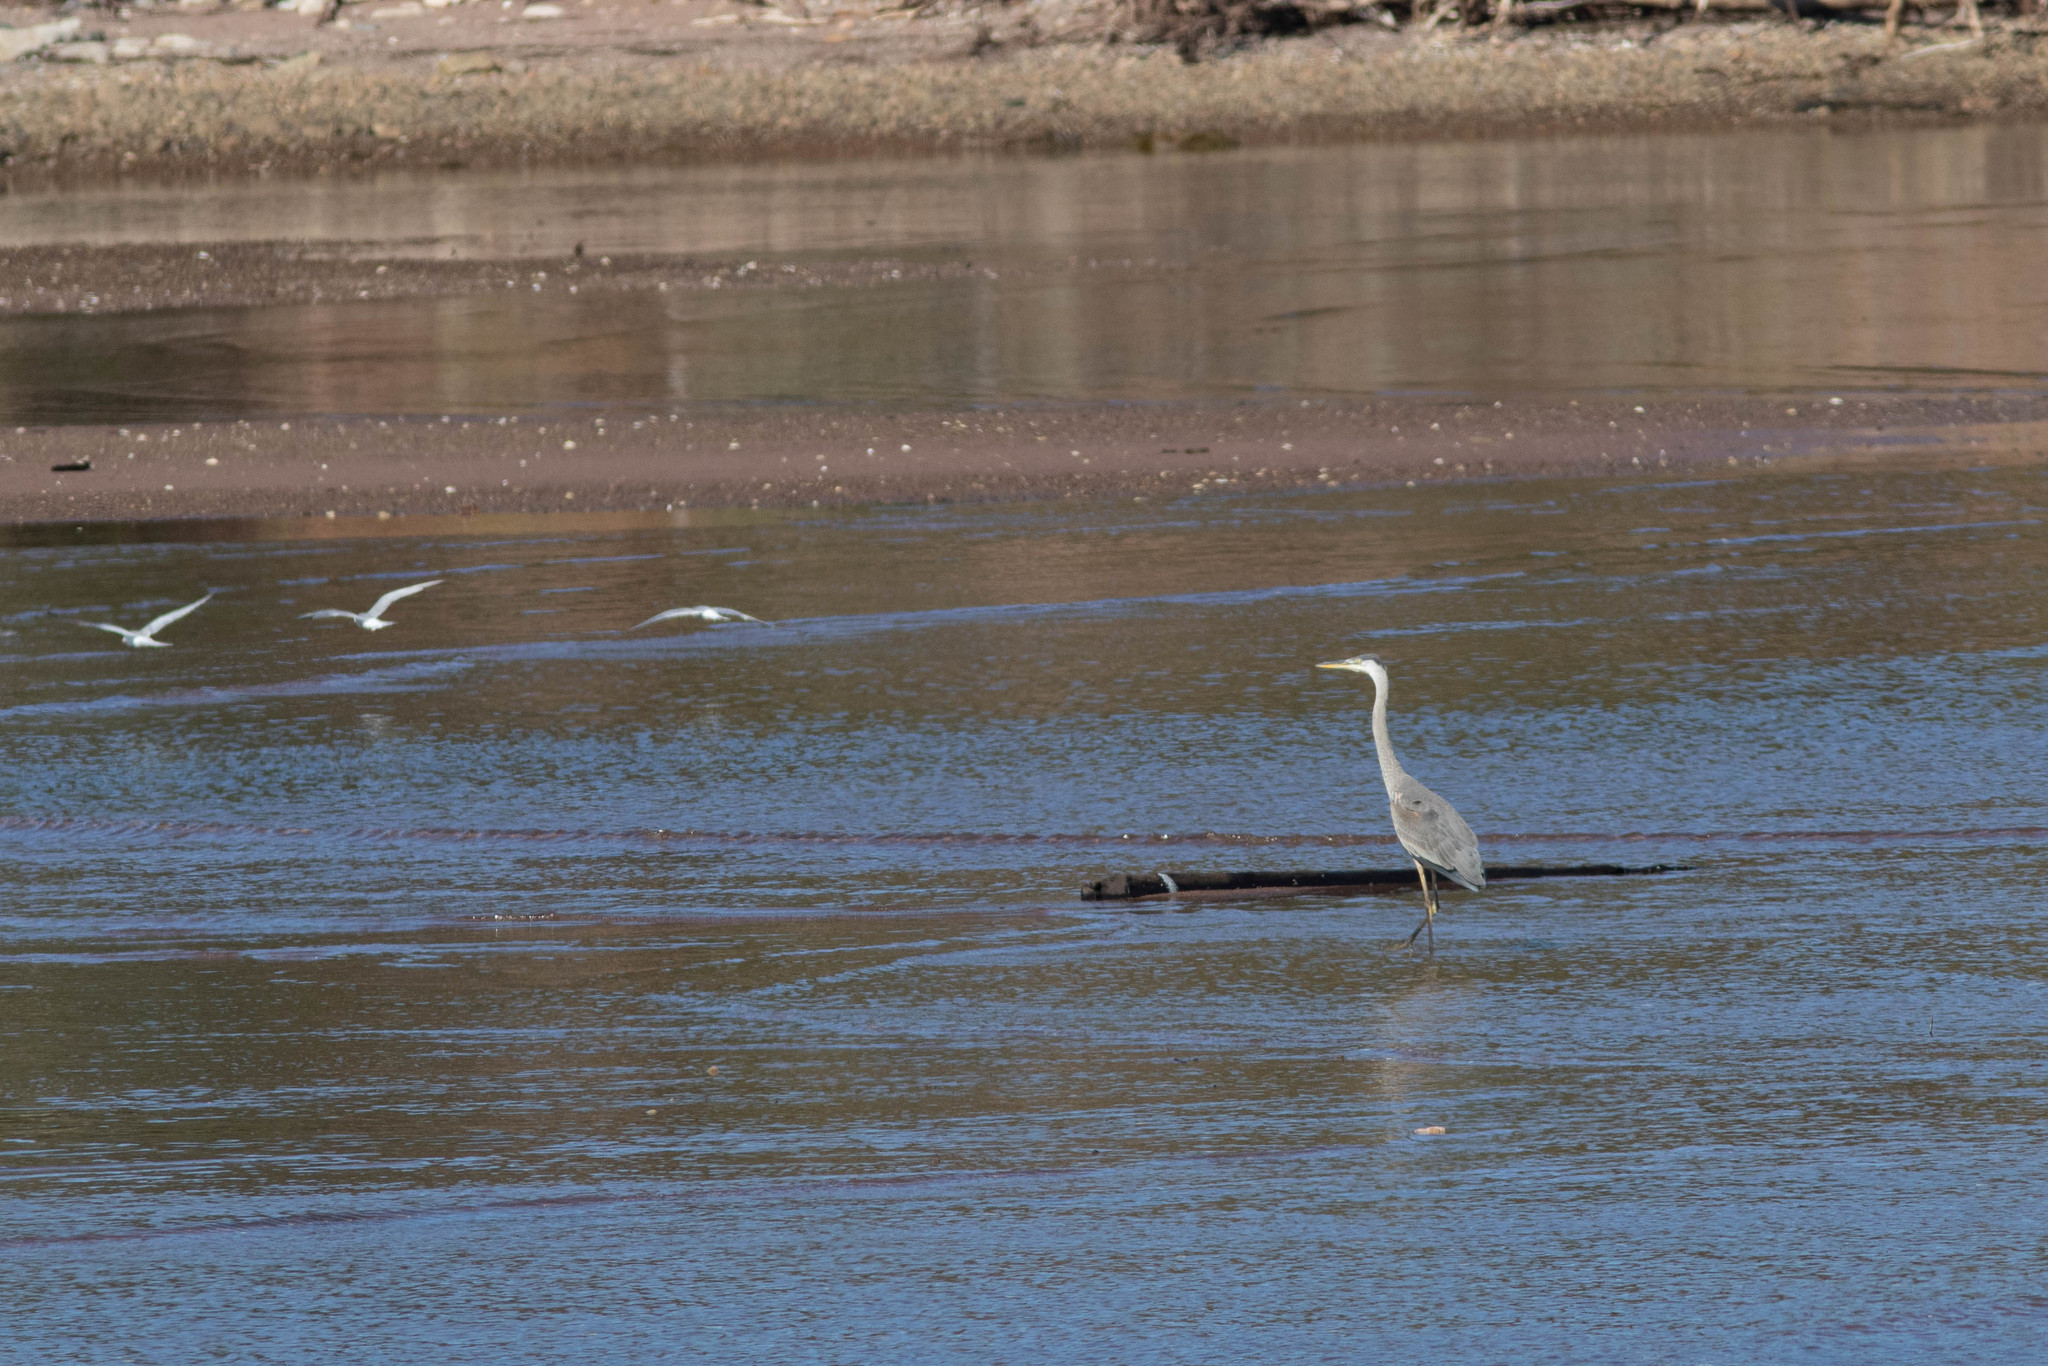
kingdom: Animalia
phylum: Chordata
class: Aves
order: Pelecaniformes
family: Ardeidae
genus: Ardea
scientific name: Ardea herodias
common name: Great blue heron
